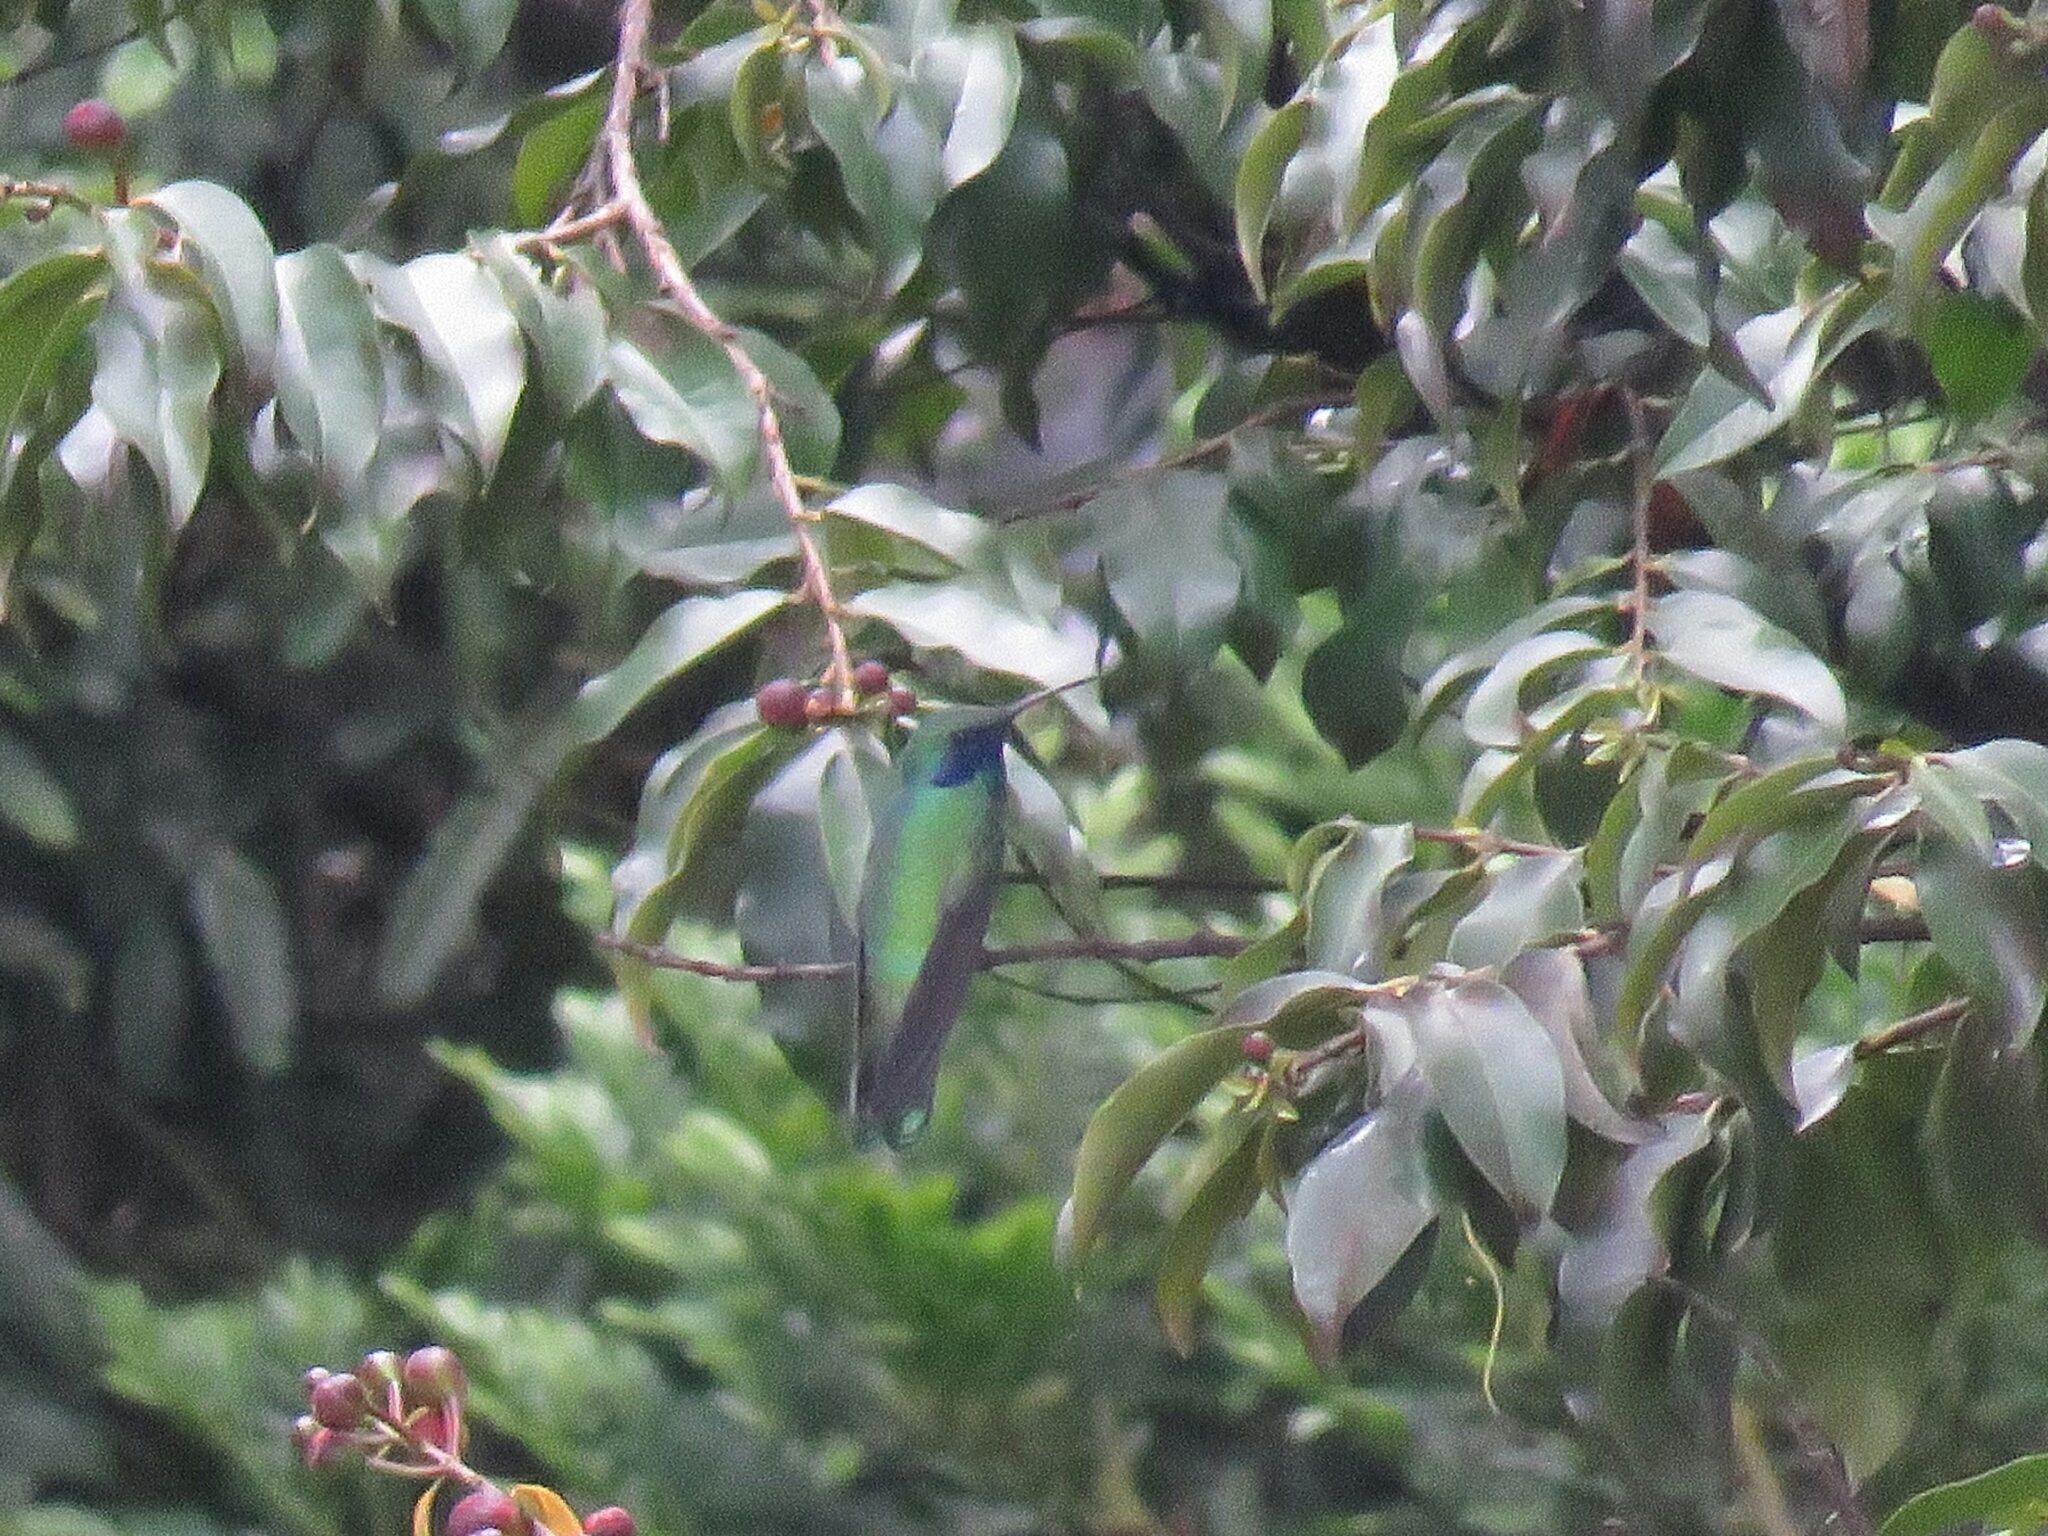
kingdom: Animalia
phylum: Chordata
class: Aves
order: Apodiformes
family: Trochilidae
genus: Colibri
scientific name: Colibri coruscans
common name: Sparkling violetear
